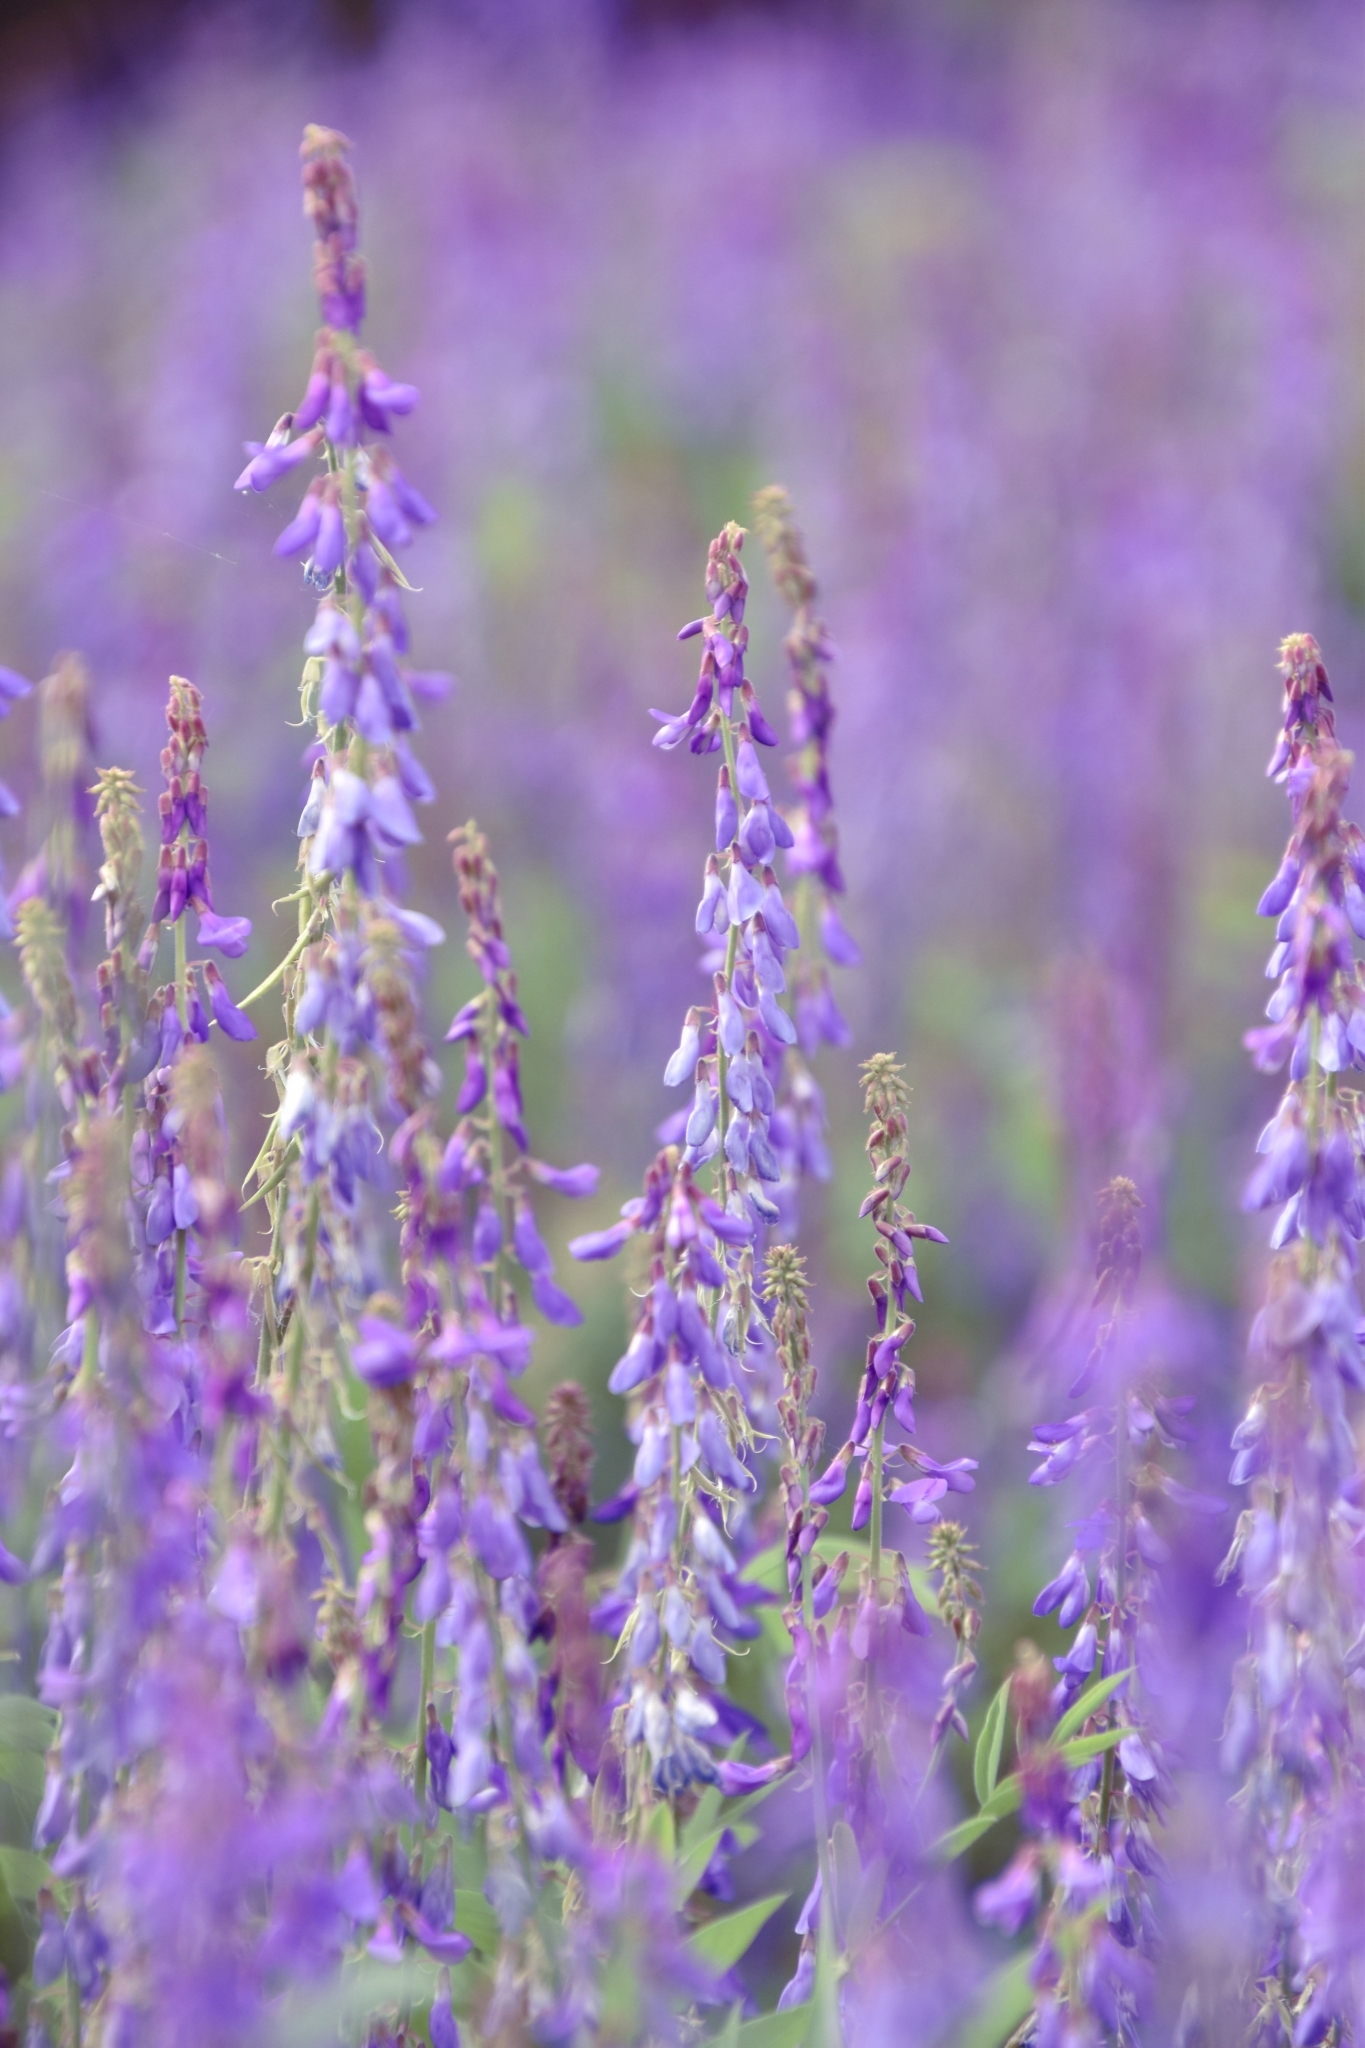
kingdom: Plantae
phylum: Tracheophyta
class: Magnoliopsida
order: Fabales
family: Fabaceae
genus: Galega
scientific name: Galega orientalis
